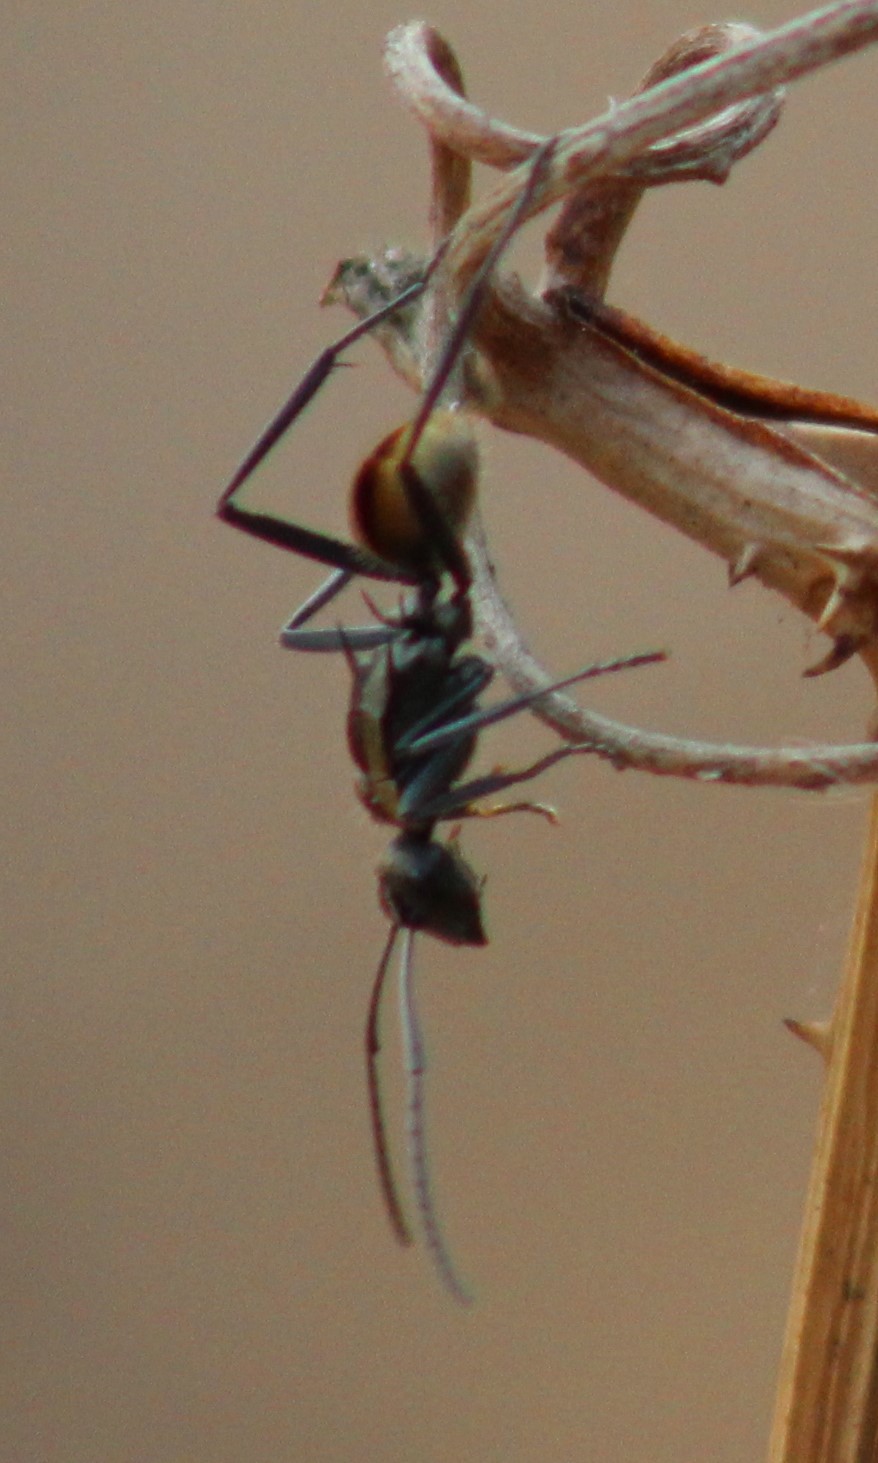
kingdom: Animalia
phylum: Arthropoda
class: Insecta
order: Hymenoptera
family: Formicidae
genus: Polyrhachis
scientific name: Polyrhachis
